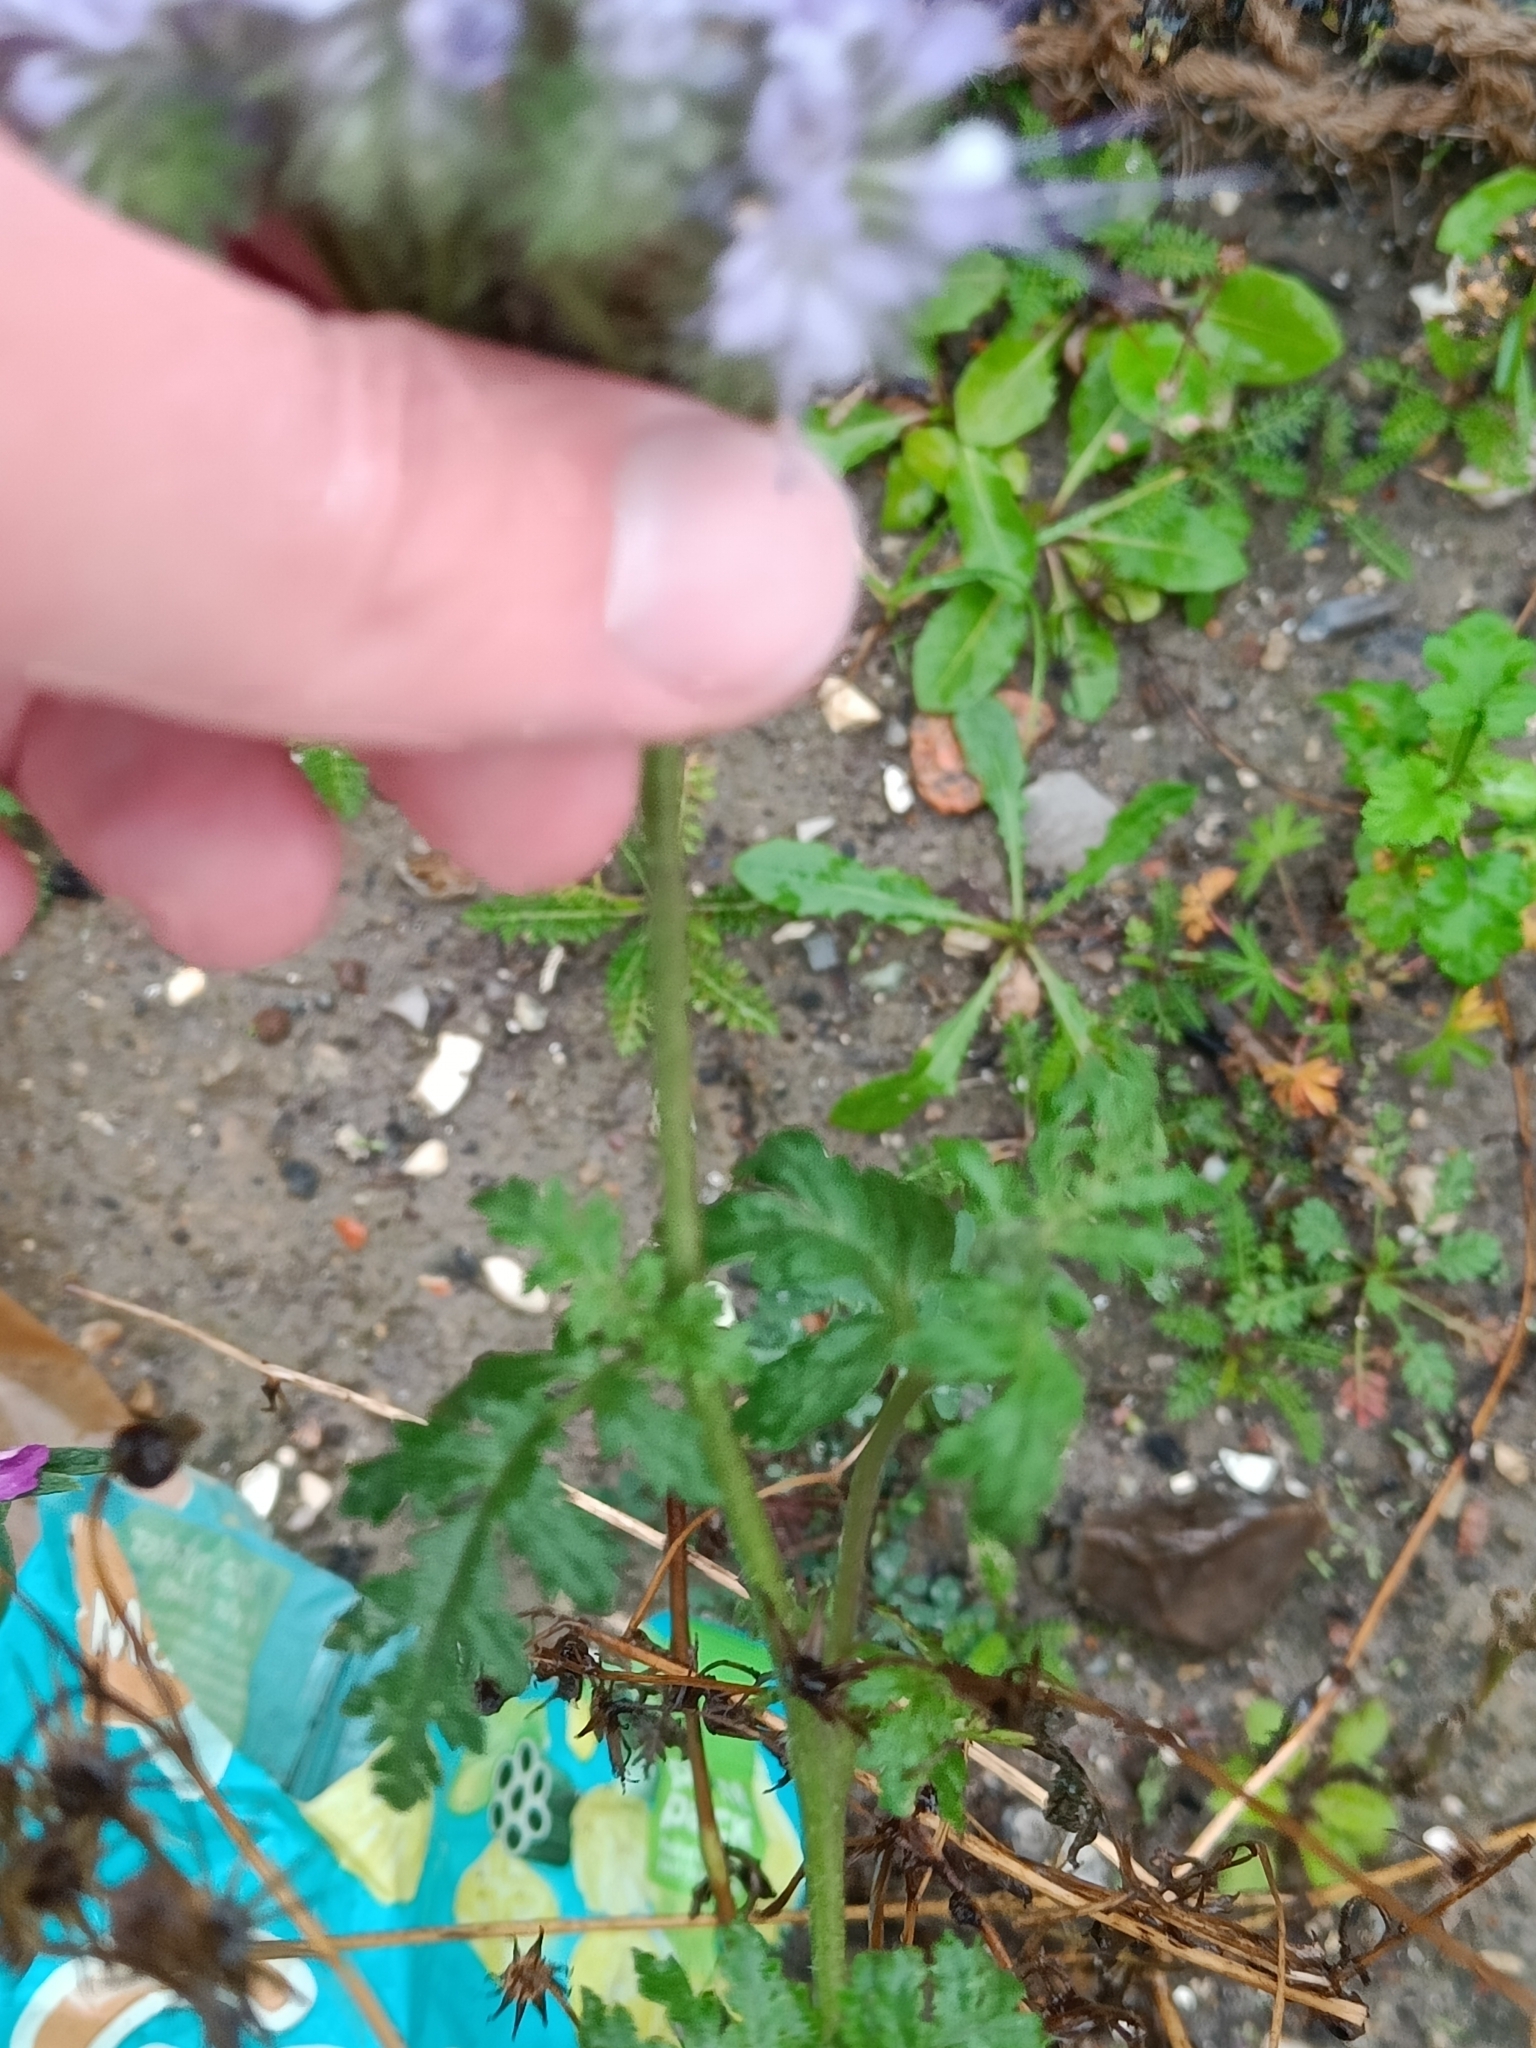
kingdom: Plantae
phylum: Tracheophyta
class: Magnoliopsida
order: Boraginales
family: Hydrophyllaceae
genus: Phacelia
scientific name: Phacelia tanacetifolia
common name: Phacelia
